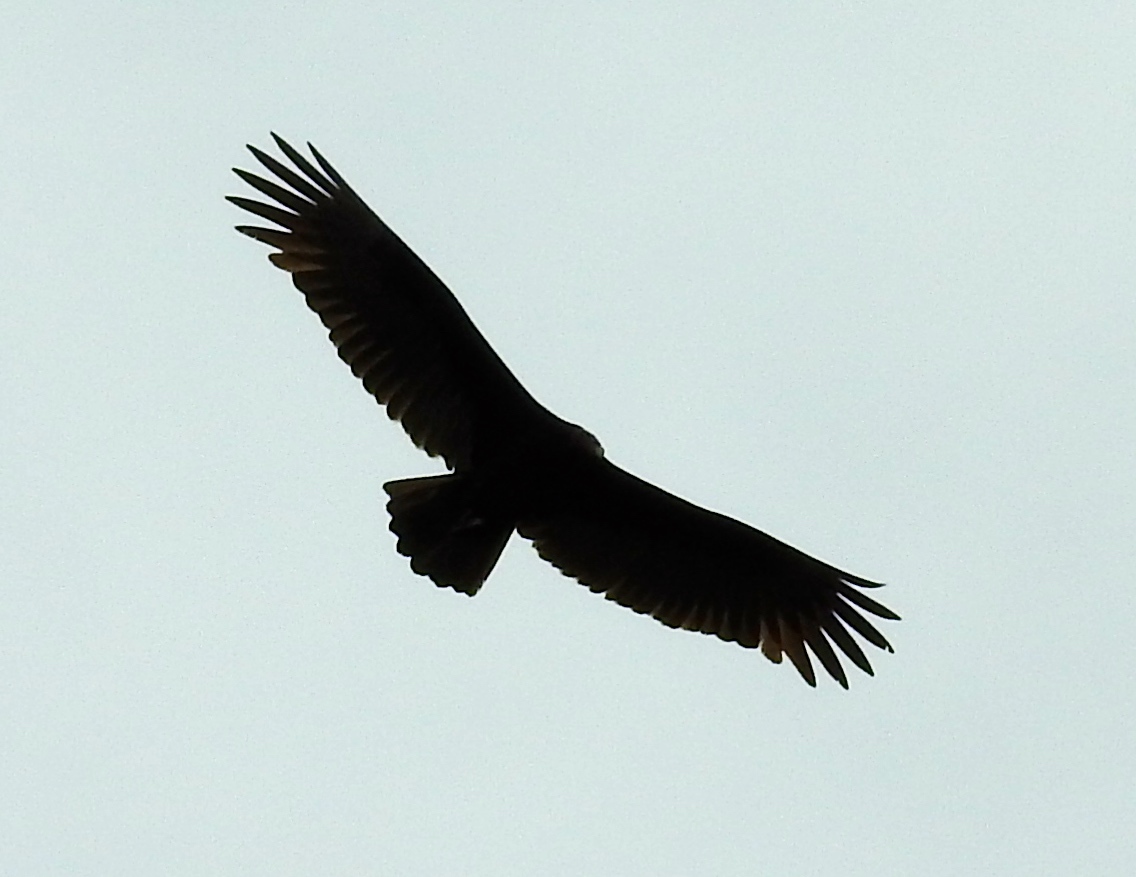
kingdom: Animalia
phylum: Chordata
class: Aves
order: Accipitriformes
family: Cathartidae
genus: Cathartes
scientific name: Cathartes aura
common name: Turkey vulture
